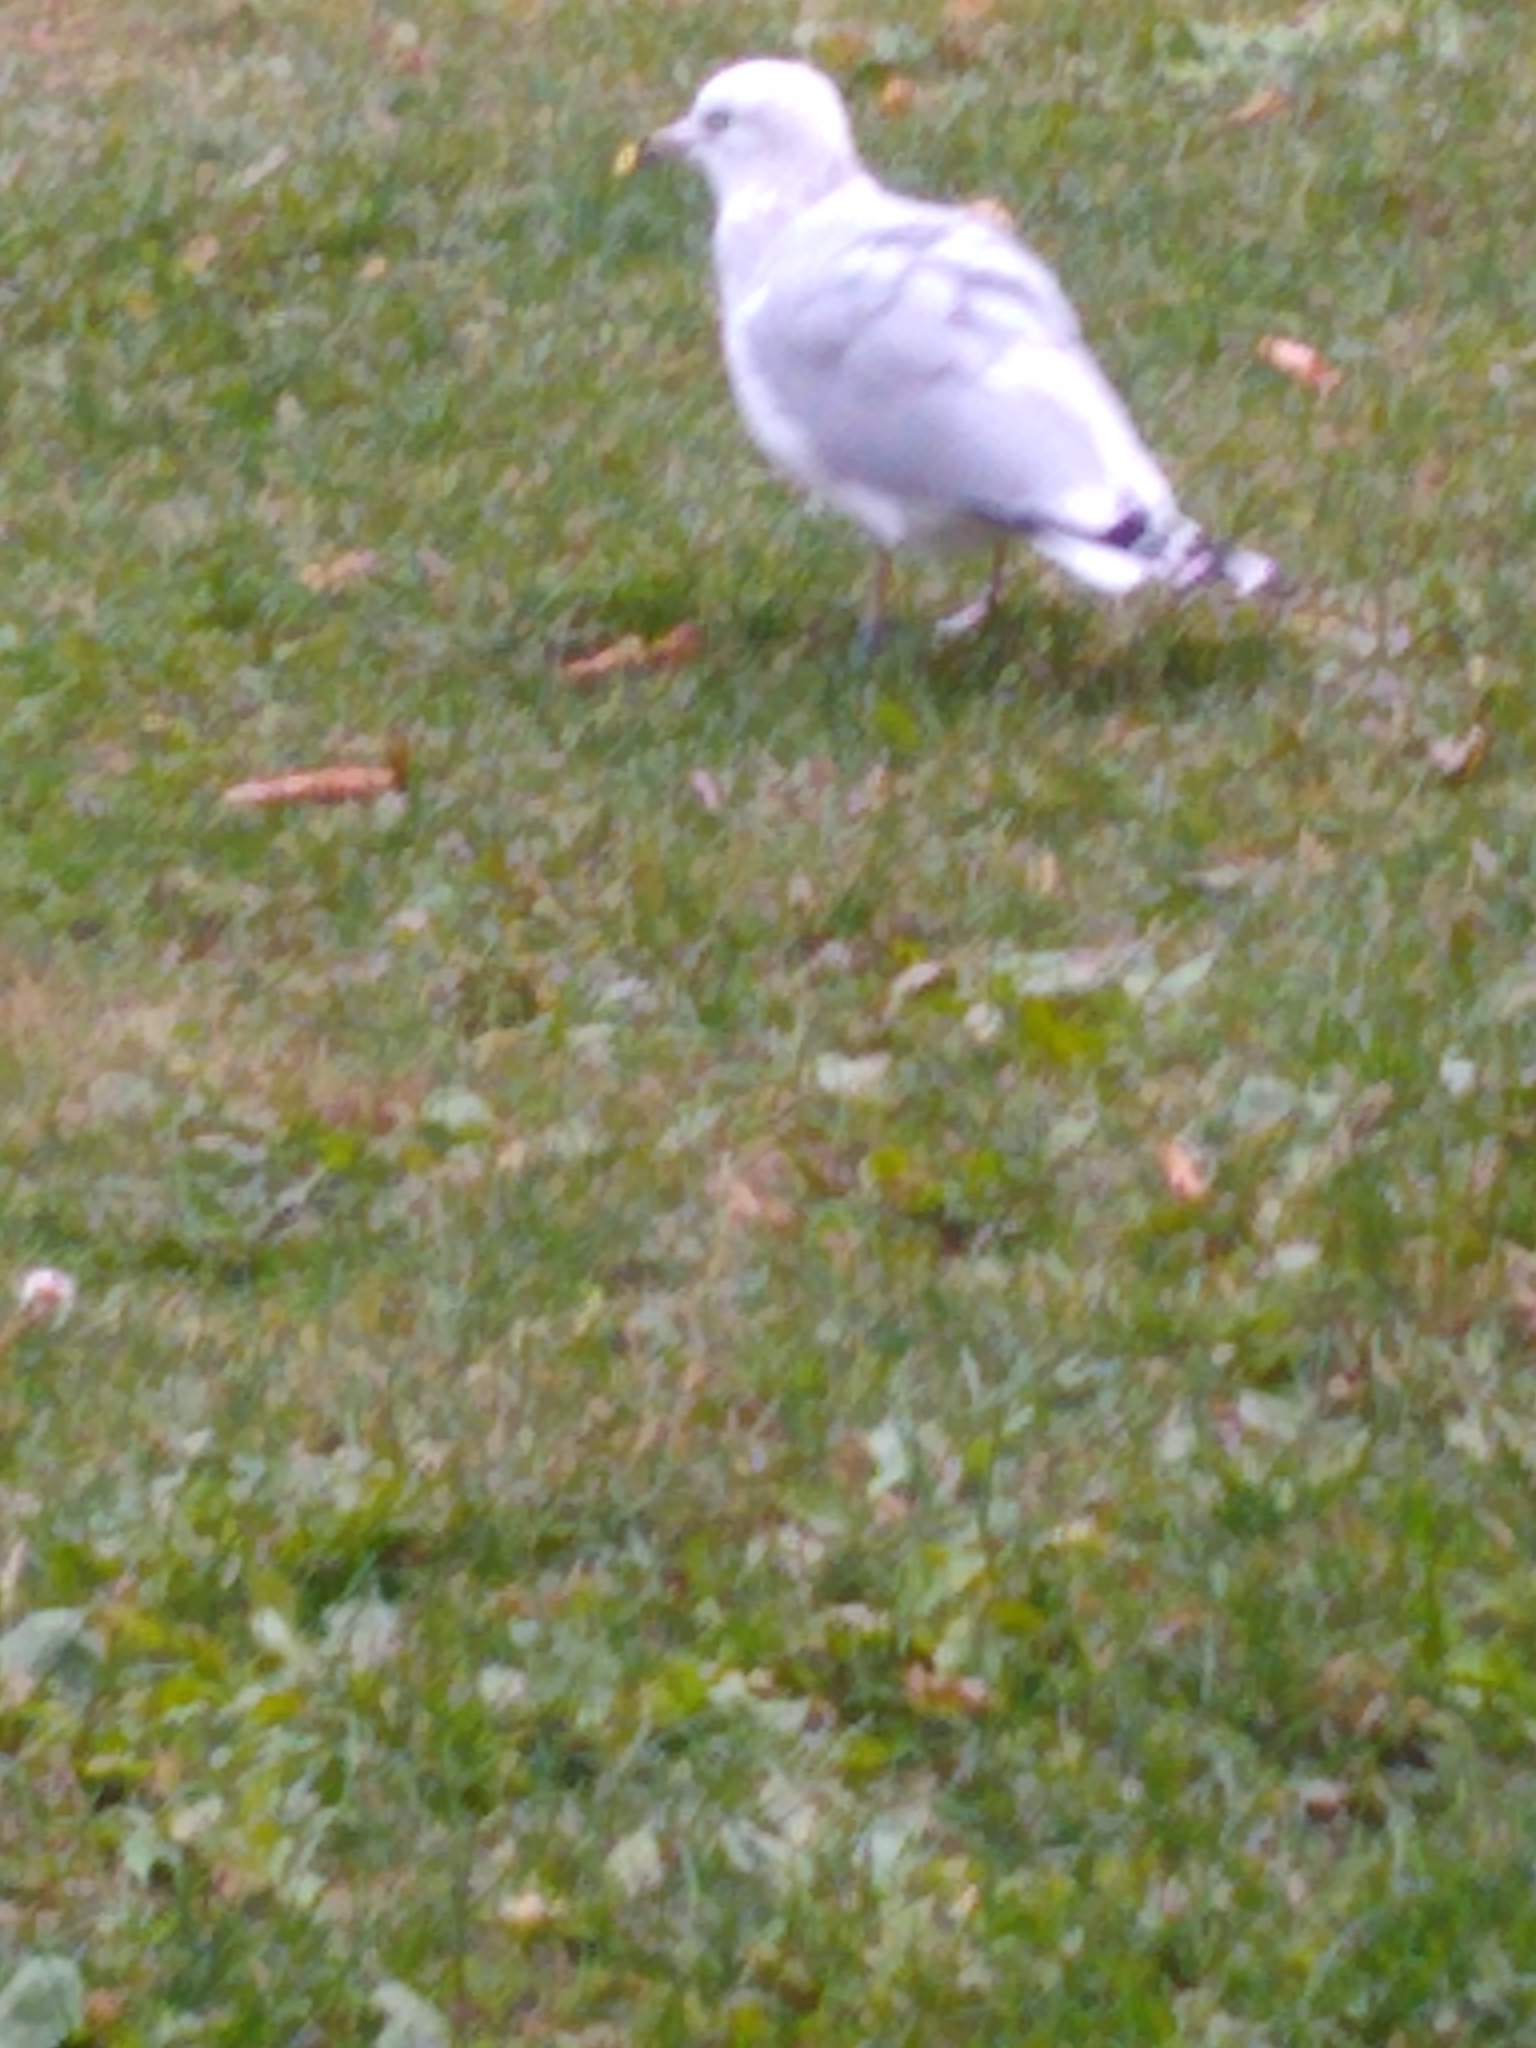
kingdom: Animalia
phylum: Chordata
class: Aves
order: Charadriiformes
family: Laridae
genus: Larus
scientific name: Larus delawarensis
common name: Ring-billed gull
